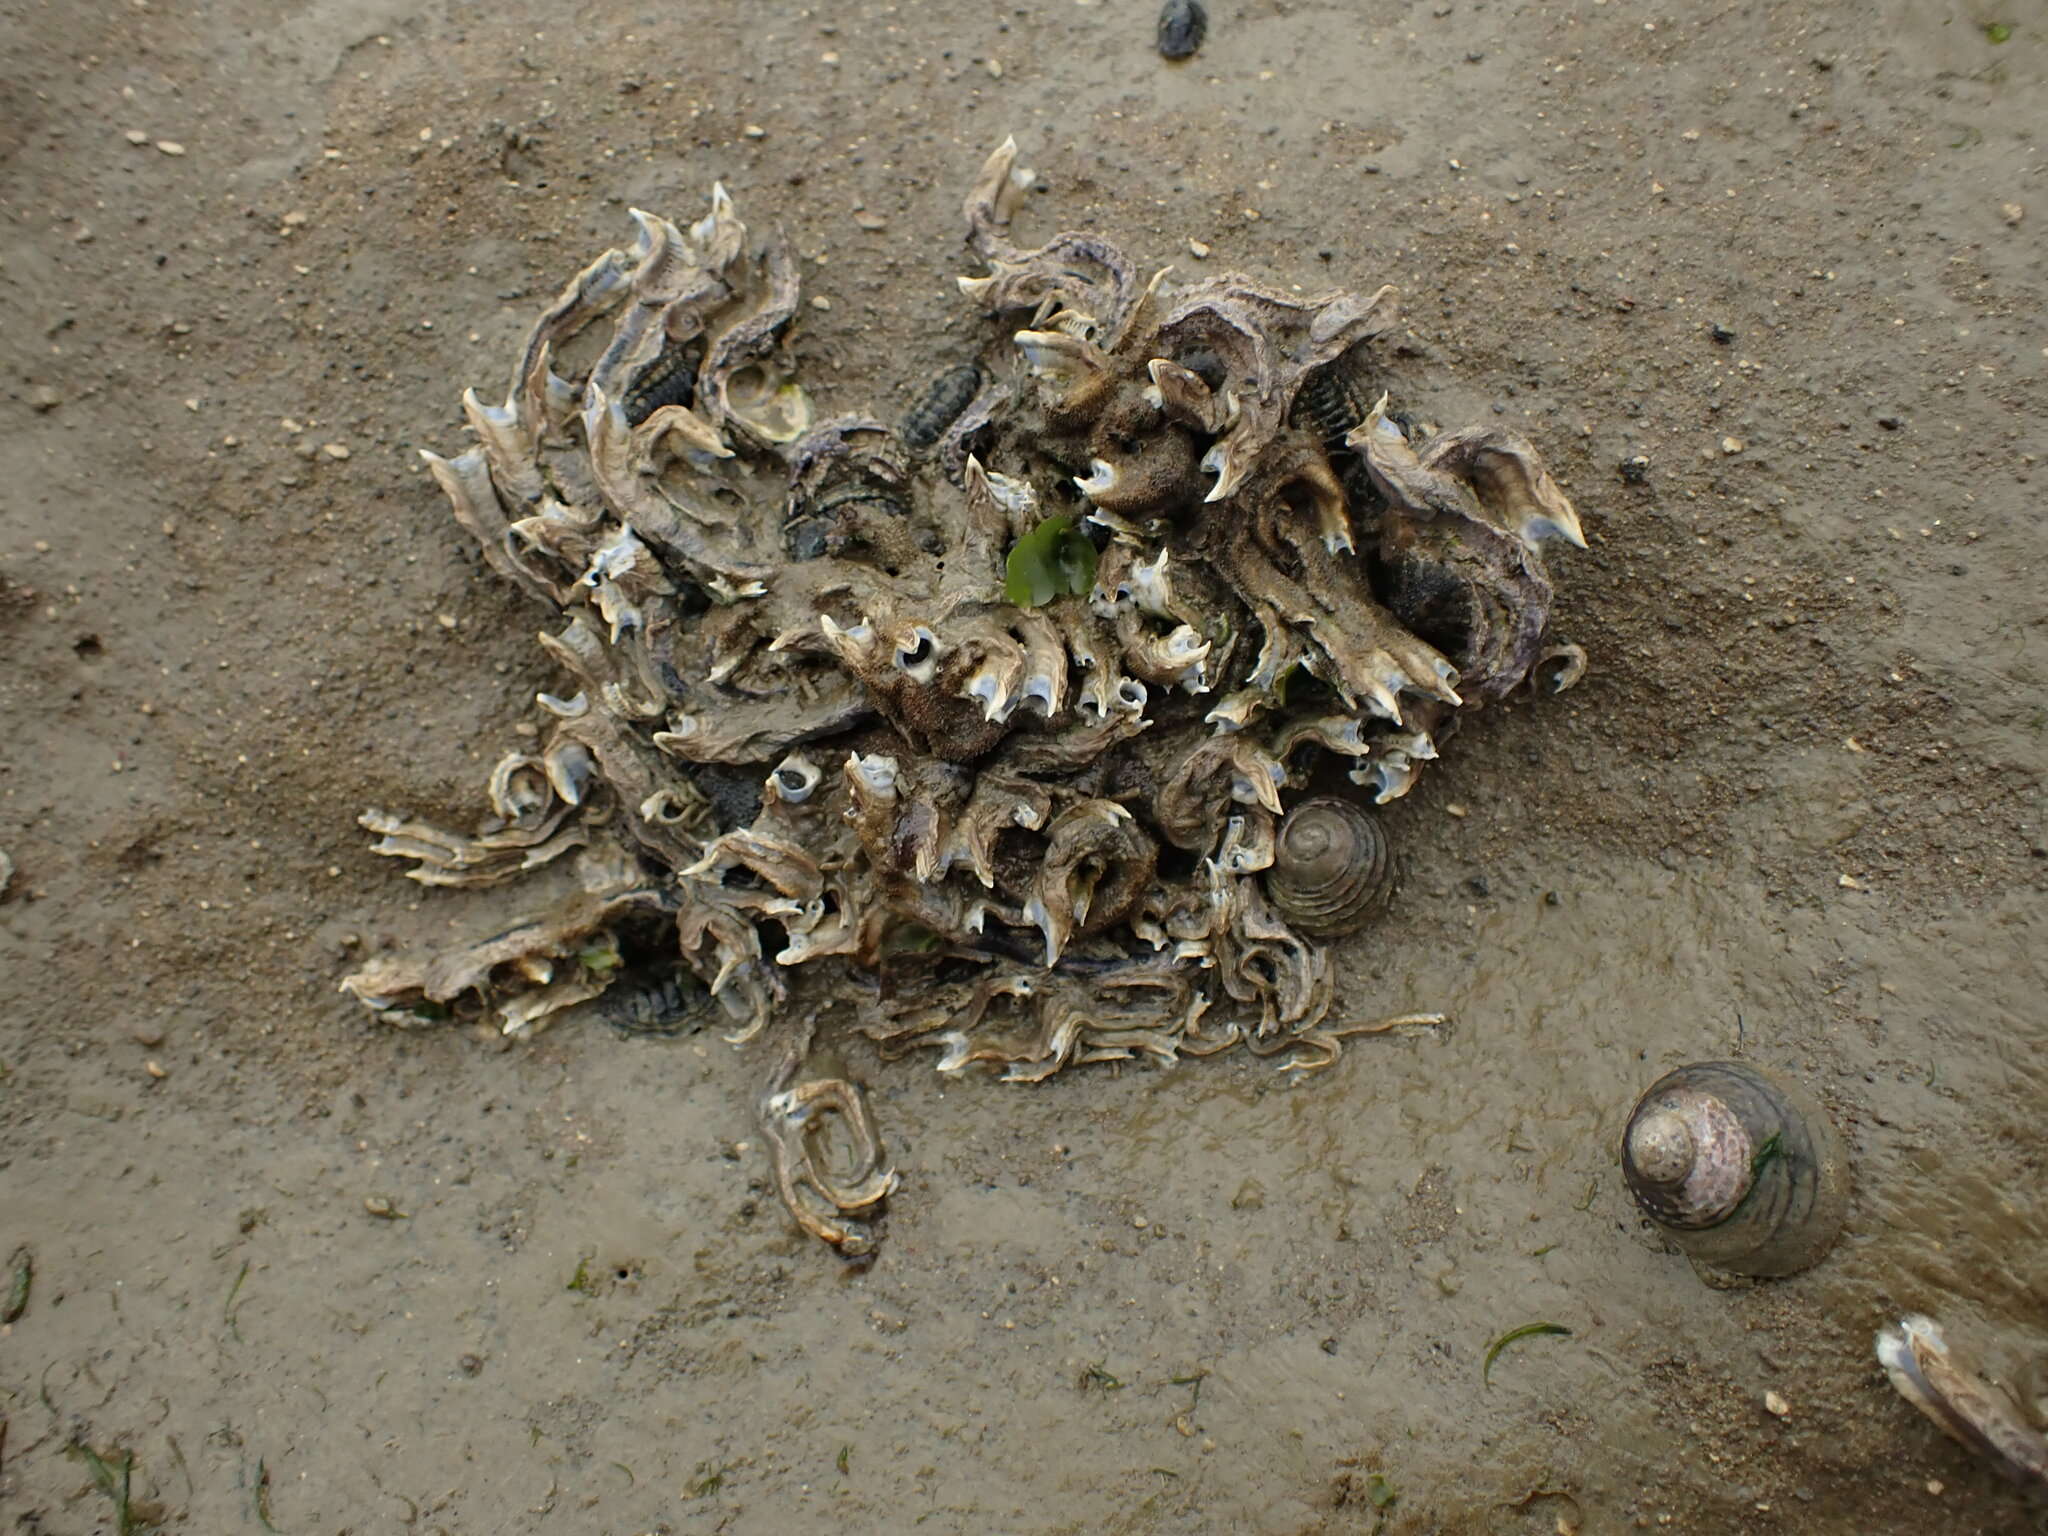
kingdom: Animalia
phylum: Annelida
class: Polychaeta
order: Sabellida
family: Serpulidae
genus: Spirobranchus
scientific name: Spirobranchus cariniferus
